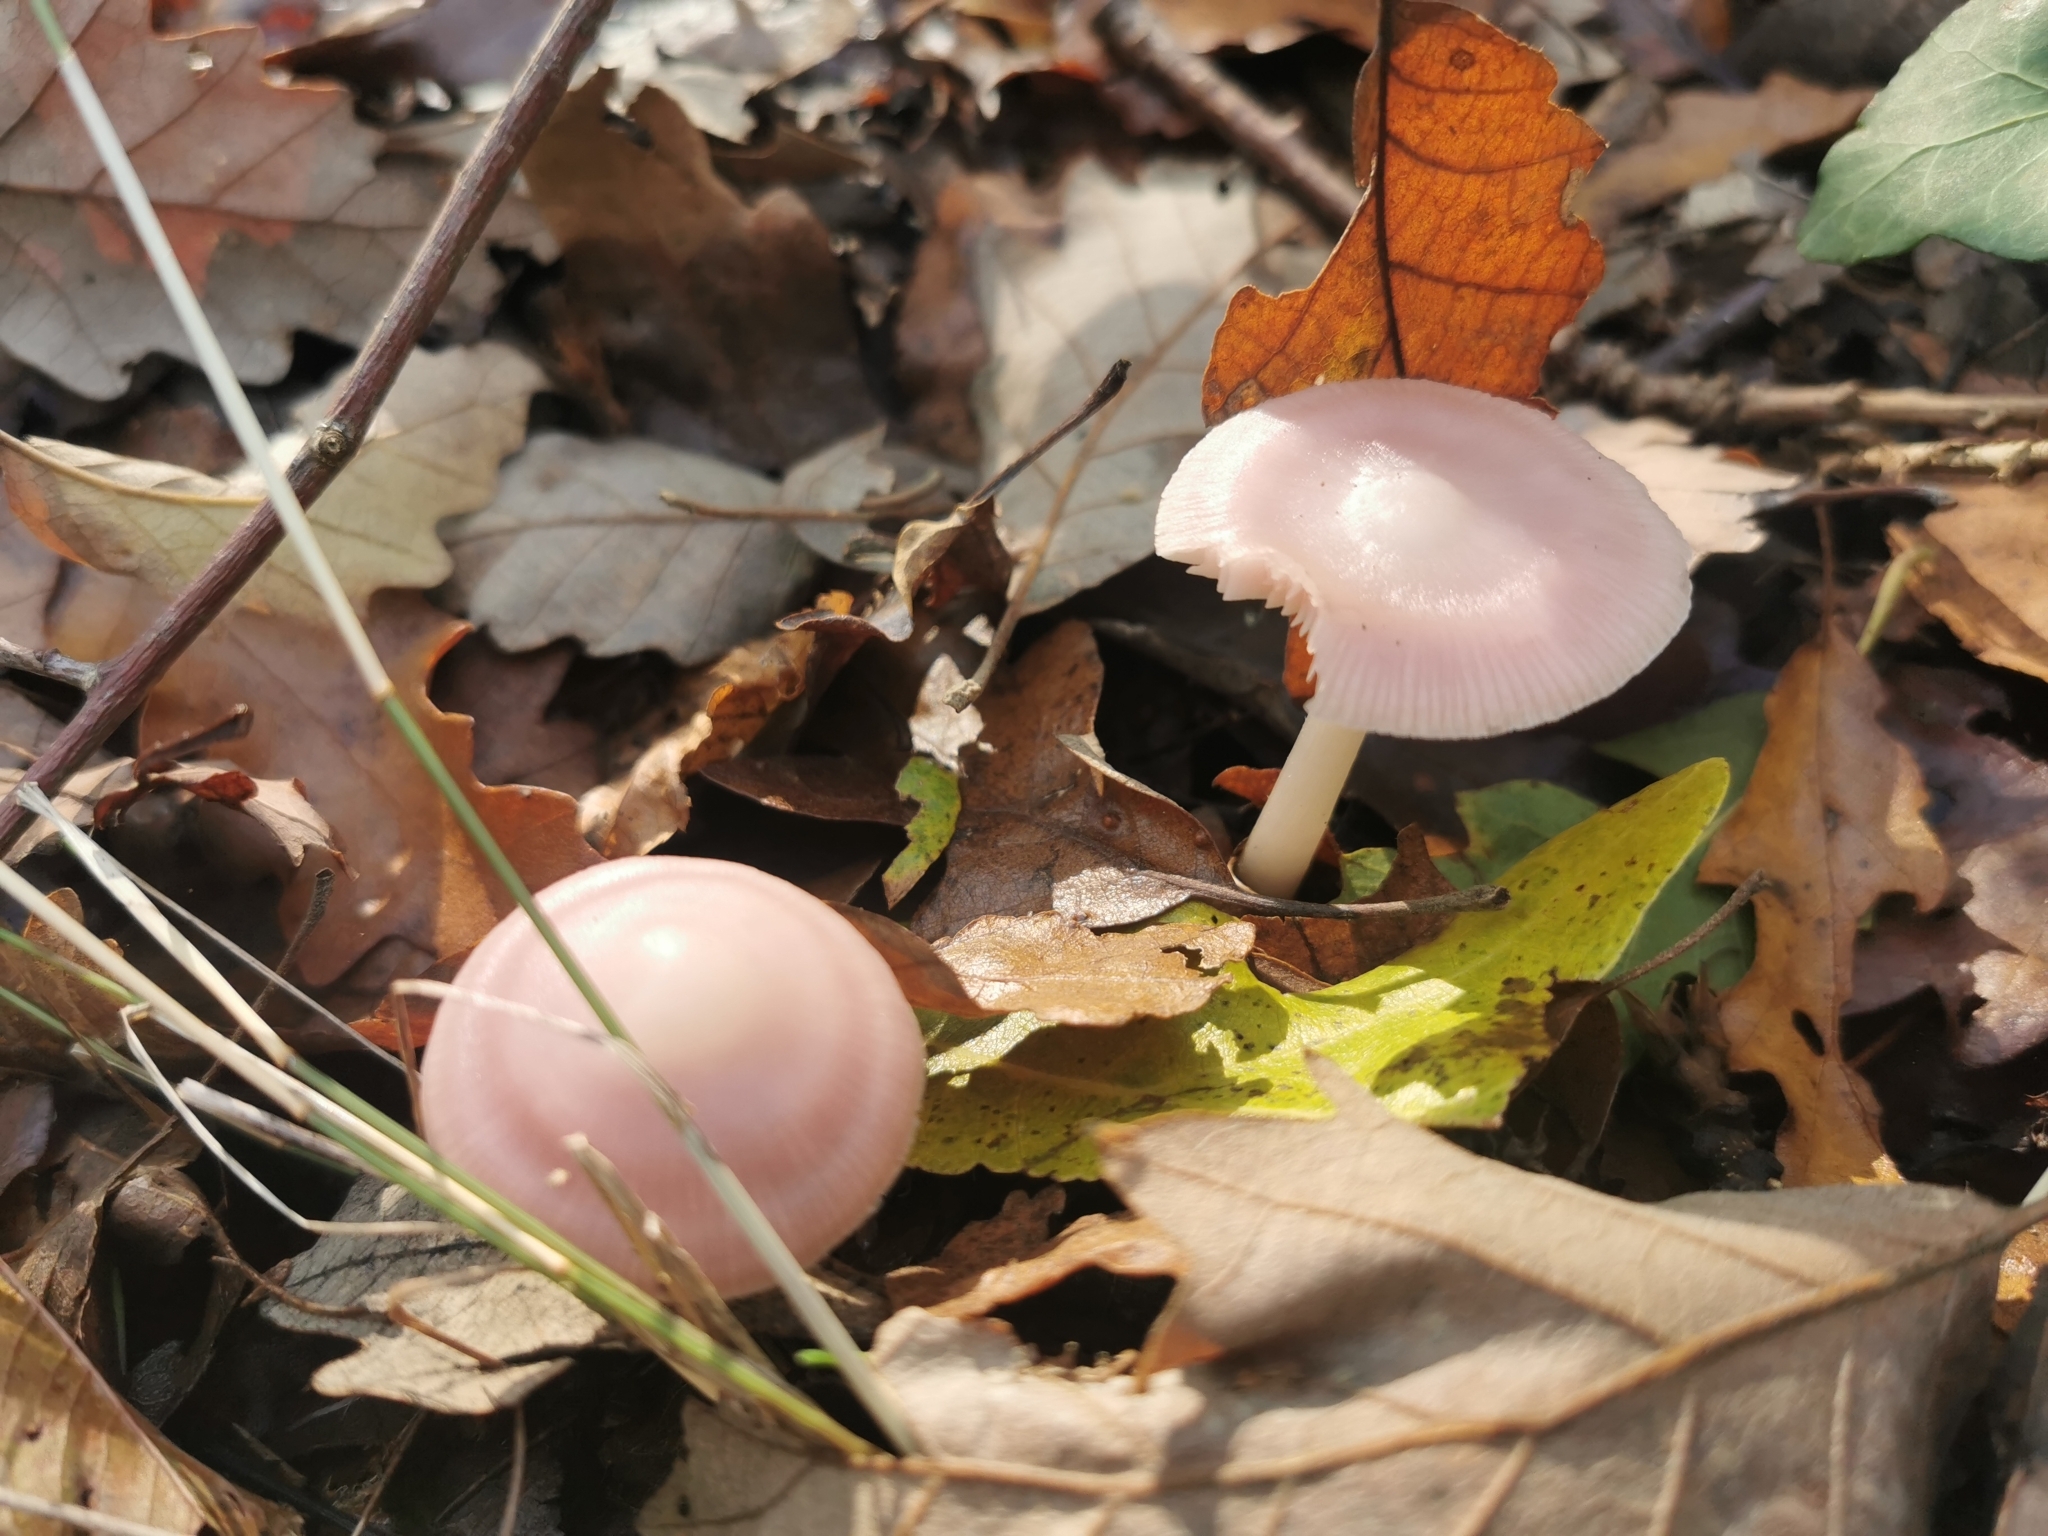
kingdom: Fungi
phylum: Basidiomycota
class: Agaricomycetes
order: Agaricales
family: Mycenaceae
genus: Mycena
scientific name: Mycena rosea
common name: Rosy bonnet
